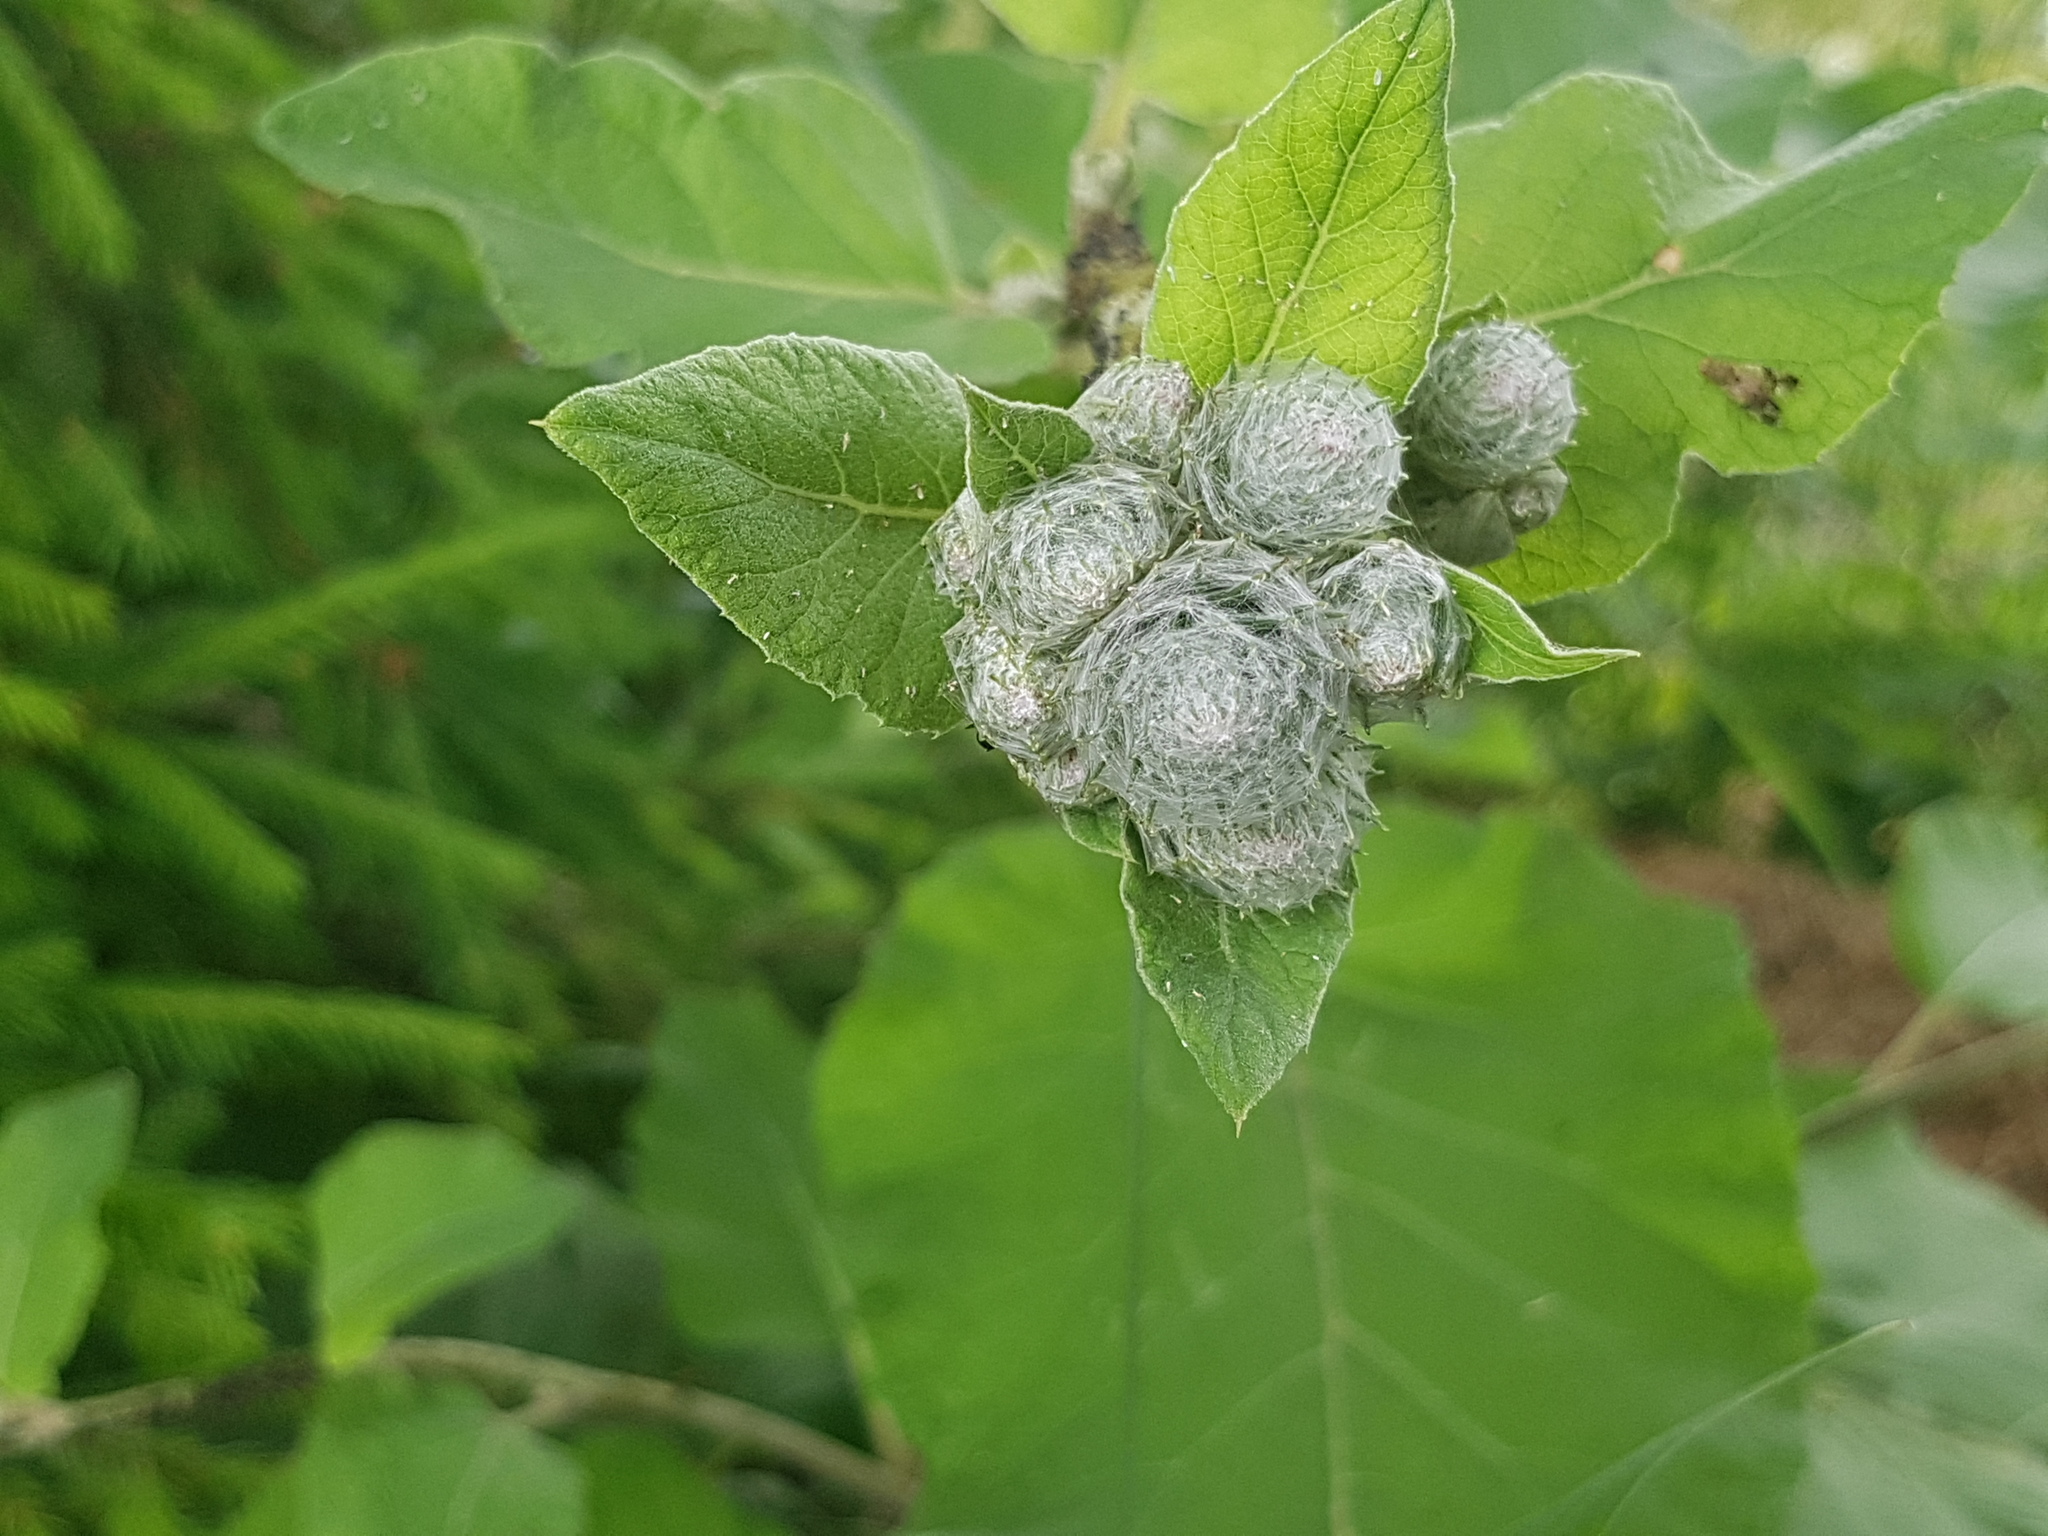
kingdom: Plantae
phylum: Tracheophyta
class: Magnoliopsida
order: Asterales
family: Asteraceae
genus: Arctium
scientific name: Arctium tomentosum
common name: Woolly burdock
